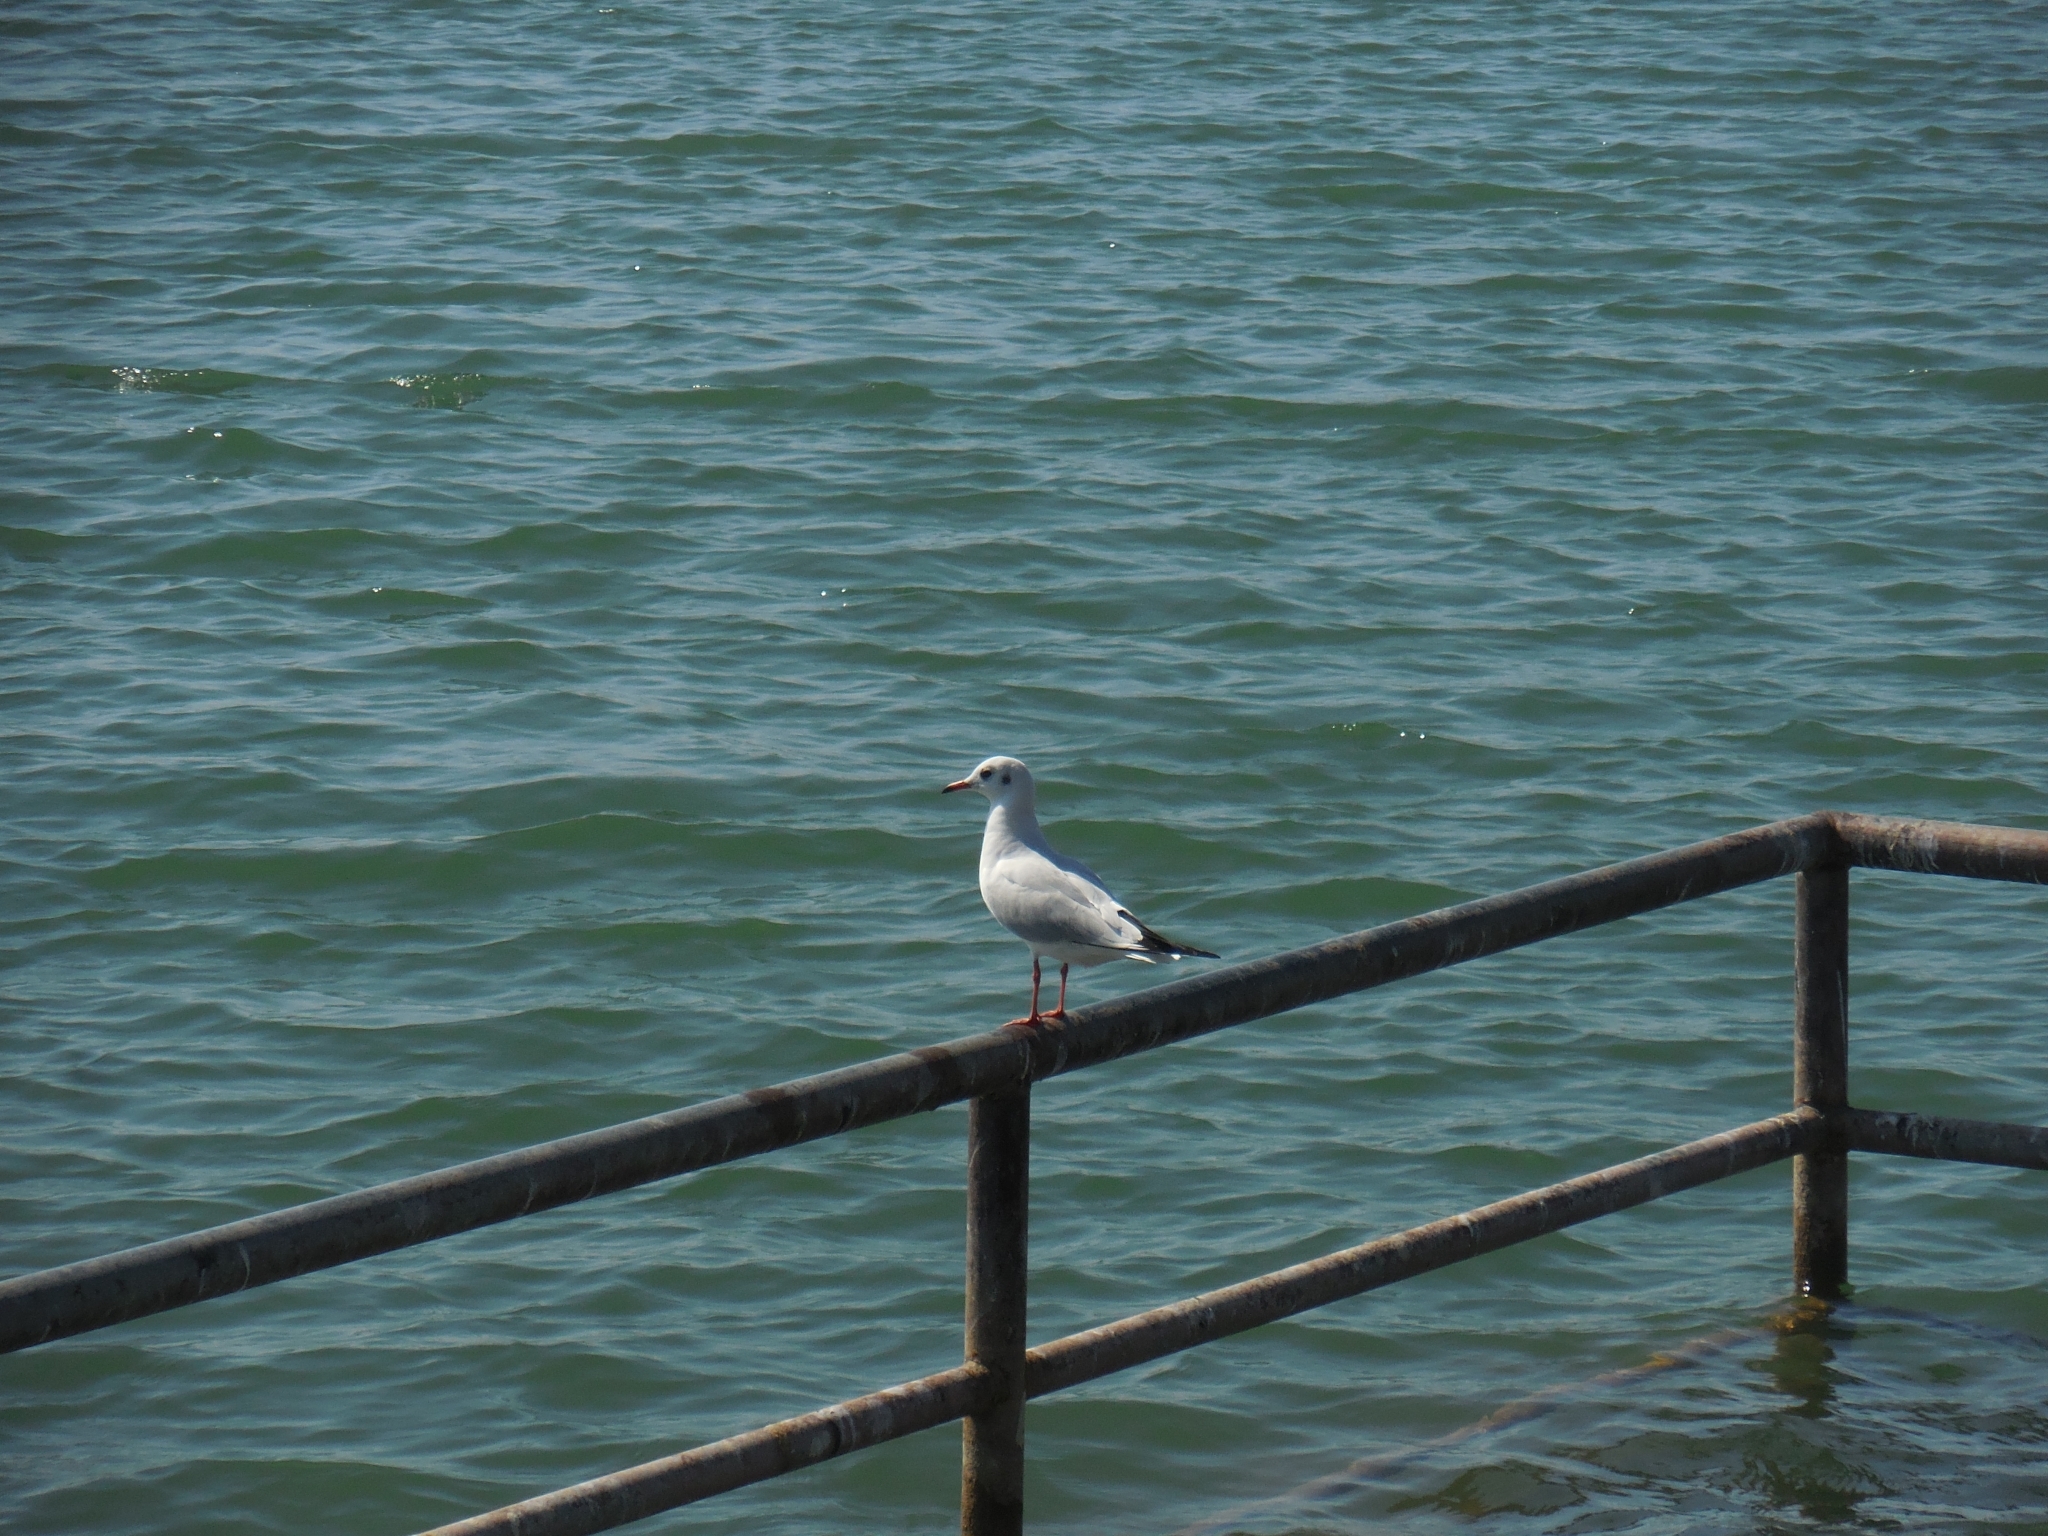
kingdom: Animalia
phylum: Chordata
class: Aves
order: Charadriiformes
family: Laridae
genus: Chroicocephalus
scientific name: Chroicocephalus ridibundus
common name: Black-headed gull
